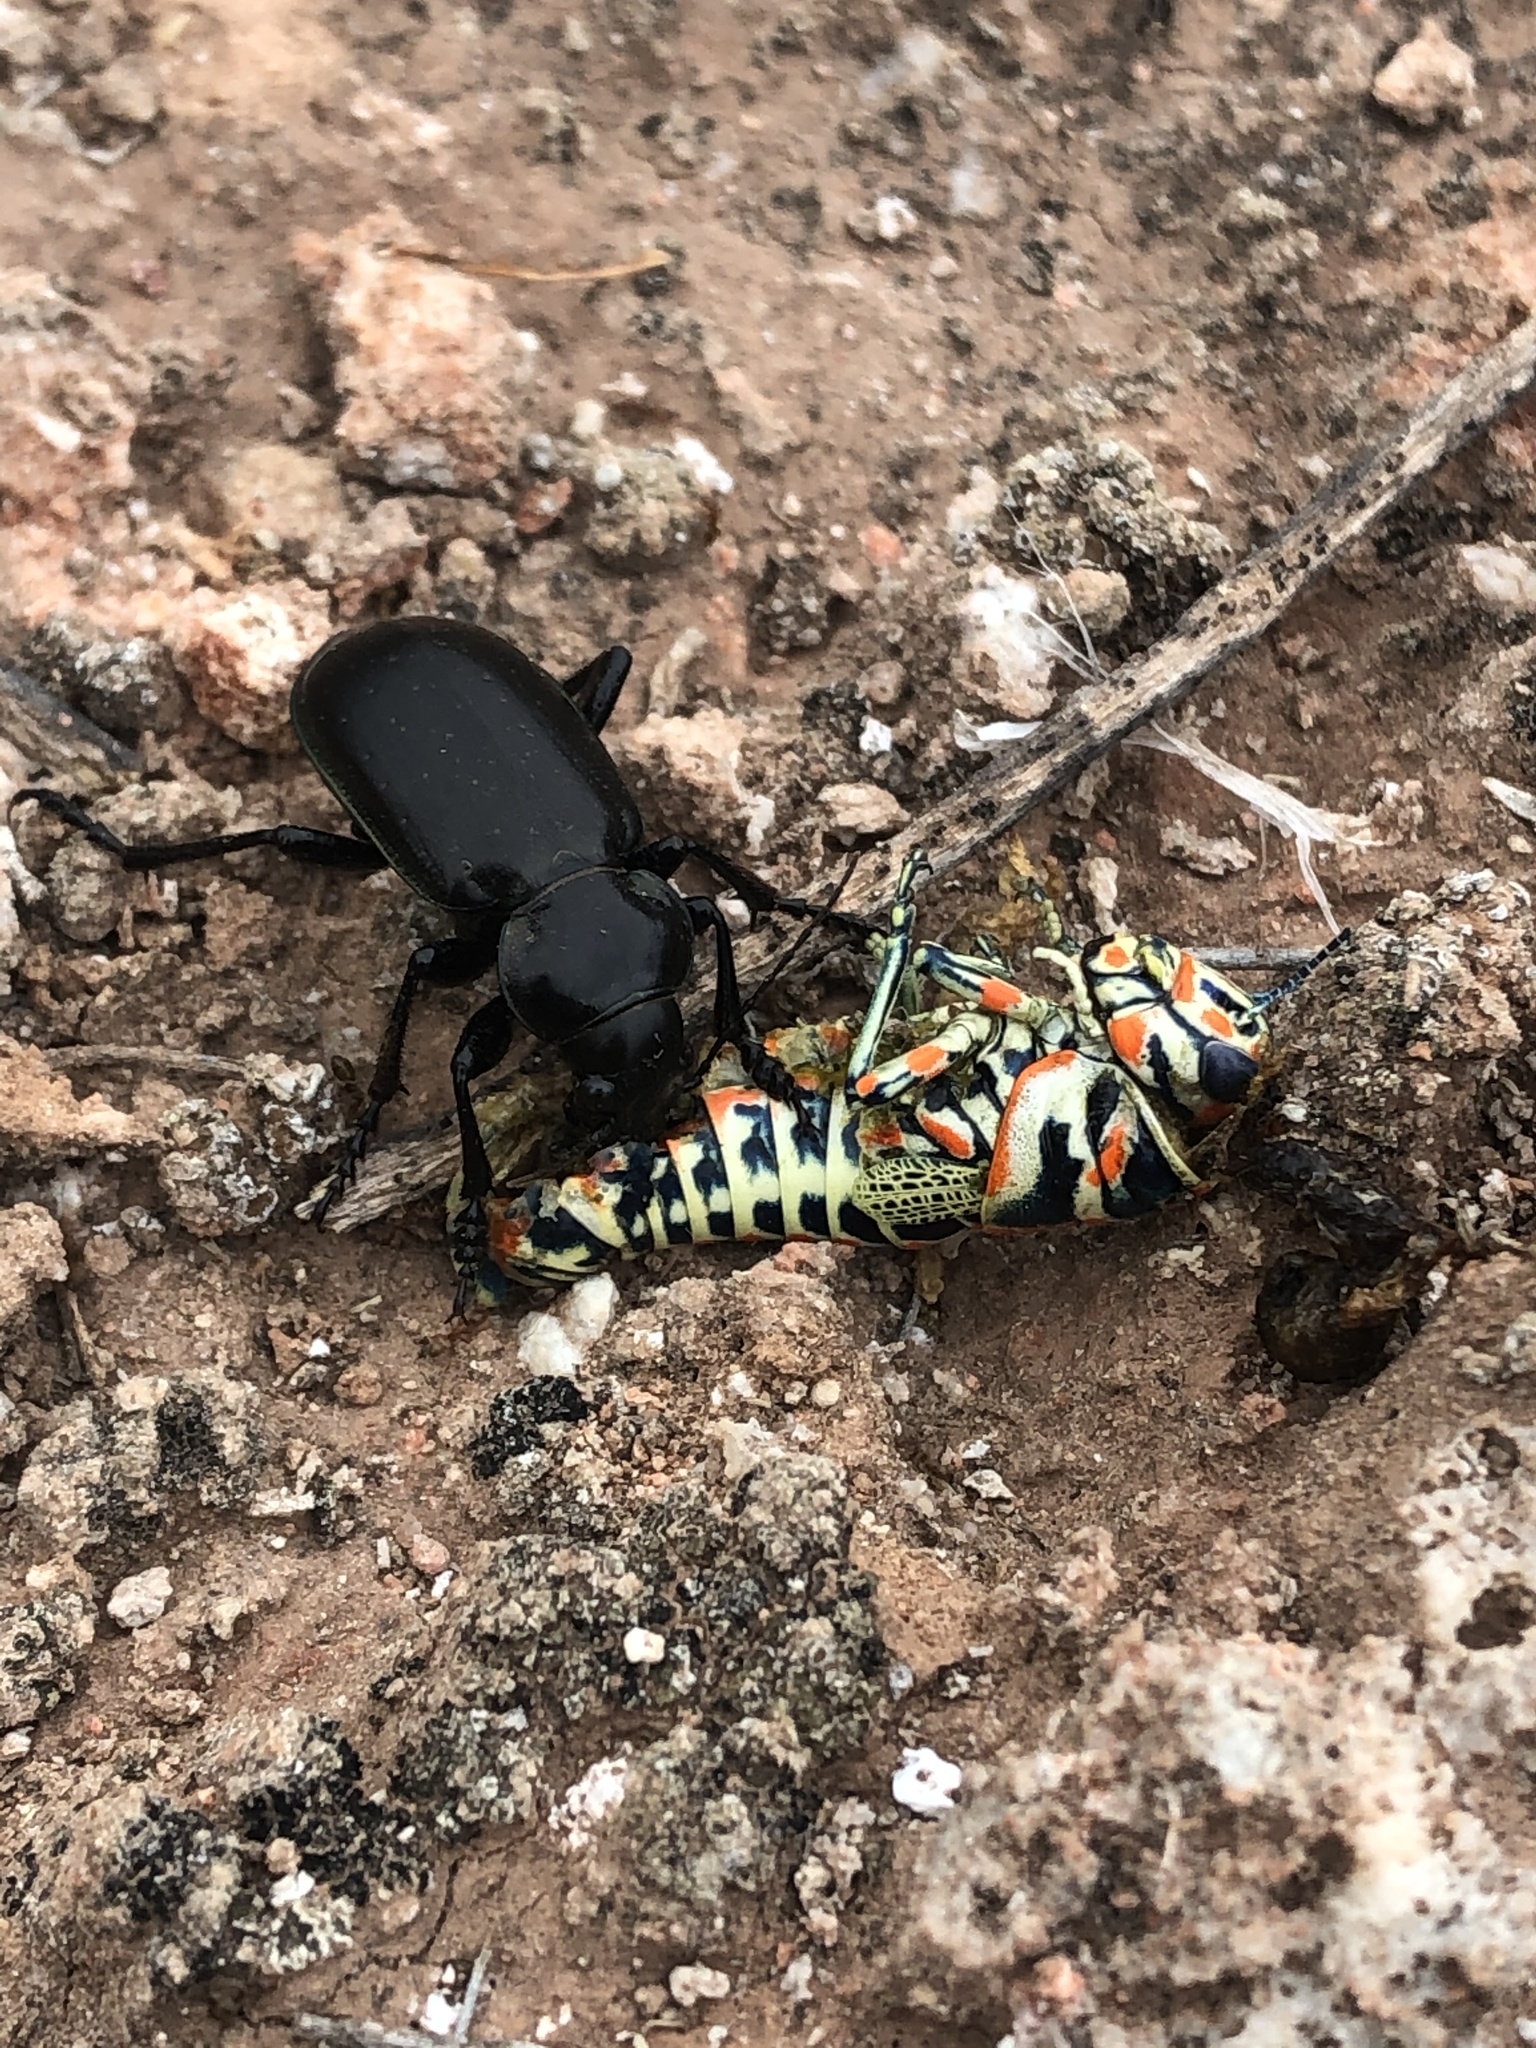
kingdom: Animalia
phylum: Arthropoda
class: Insecta
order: Coleoptera
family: Carabidae
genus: Calosoma
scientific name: Calosoma morrisonii
